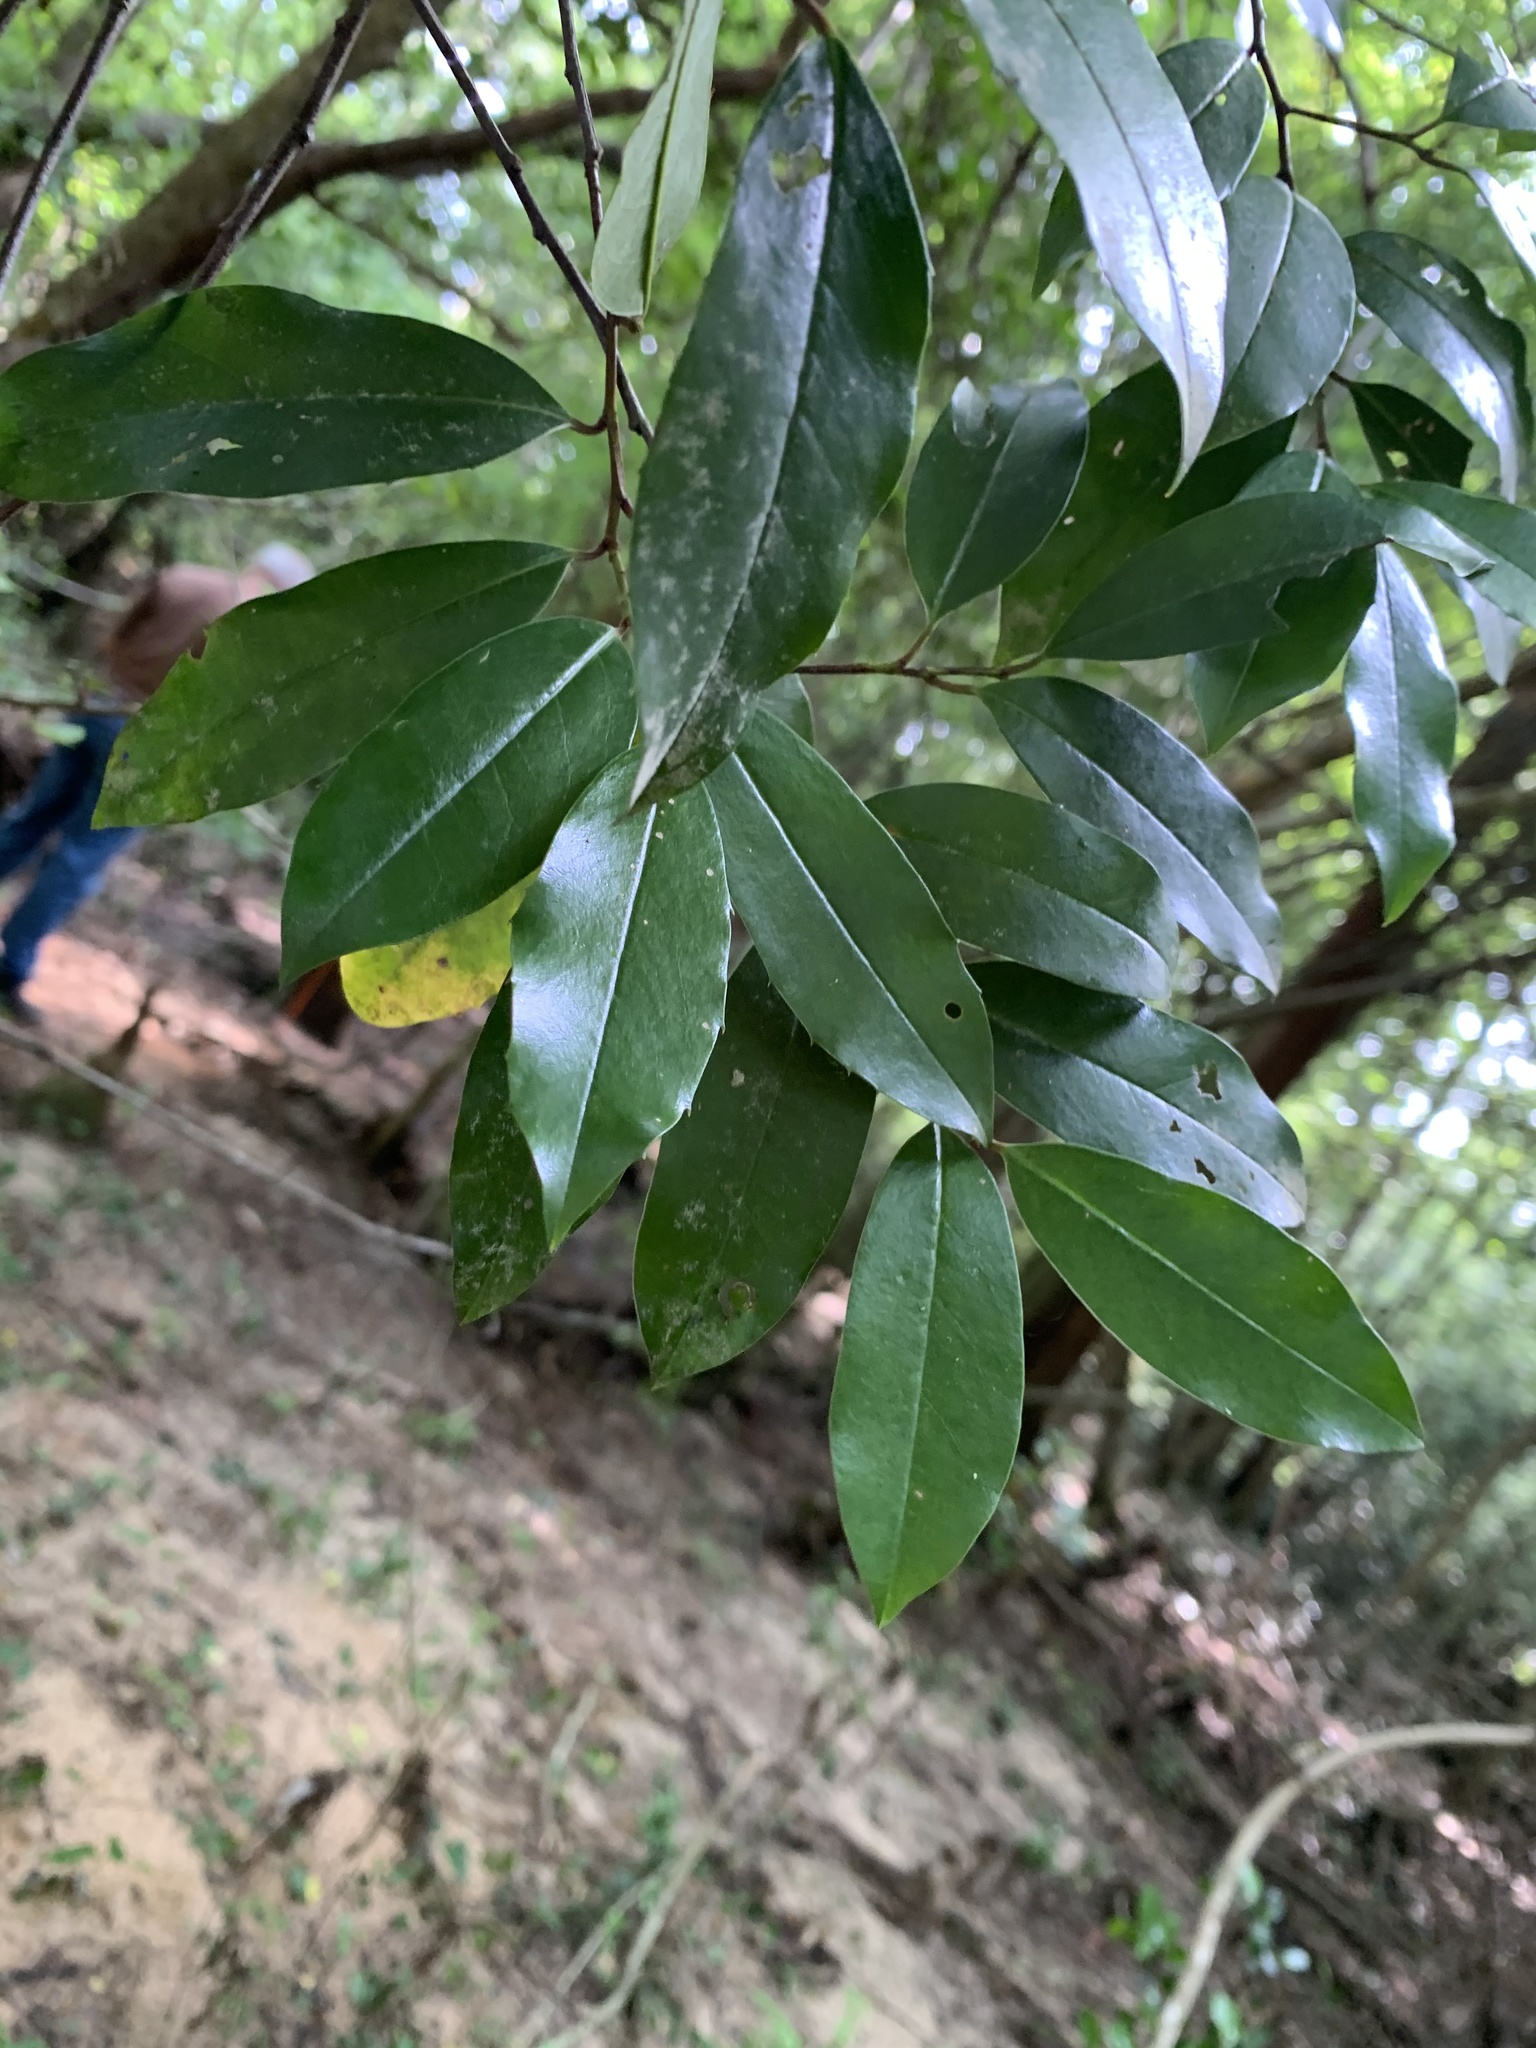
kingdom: Plantae
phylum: Tracheophyta
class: Magnoliopsida
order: Rosales
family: Rosaceae
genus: Prunus
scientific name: Prunus caroliniana
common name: Carolina laurel cherry
